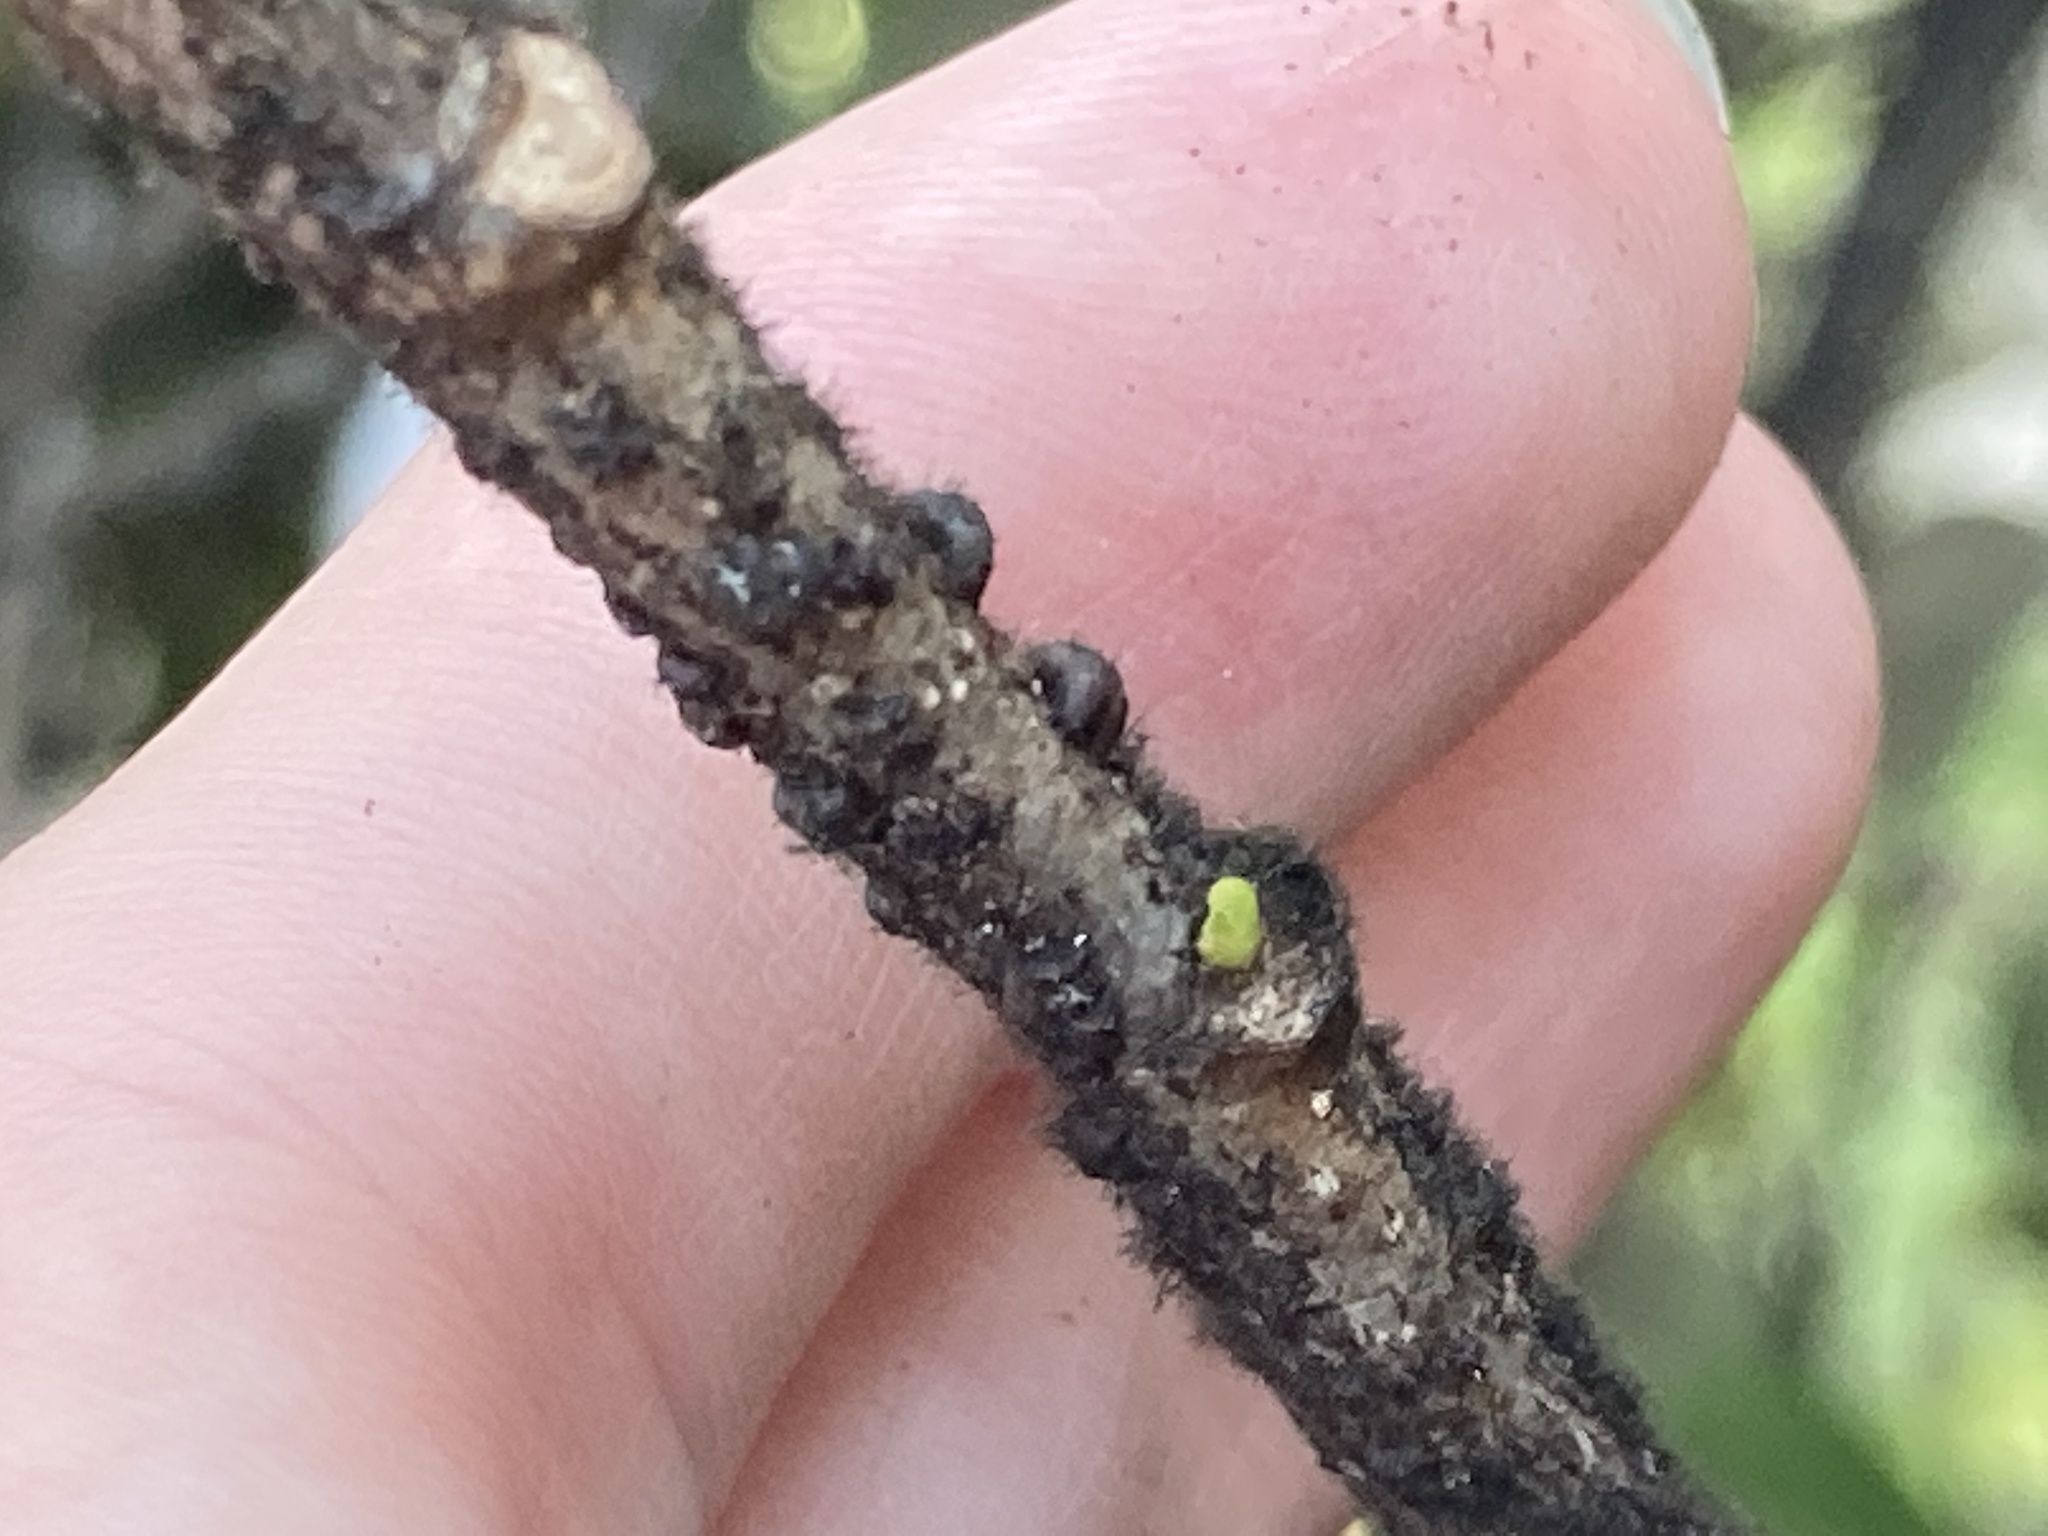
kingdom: Animalia
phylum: Arthropoda
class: Insecta
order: Hemiptera
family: Kerriidae
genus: Paratachardina
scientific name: Paratachardina pseudolobata
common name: Lobate lac scale
